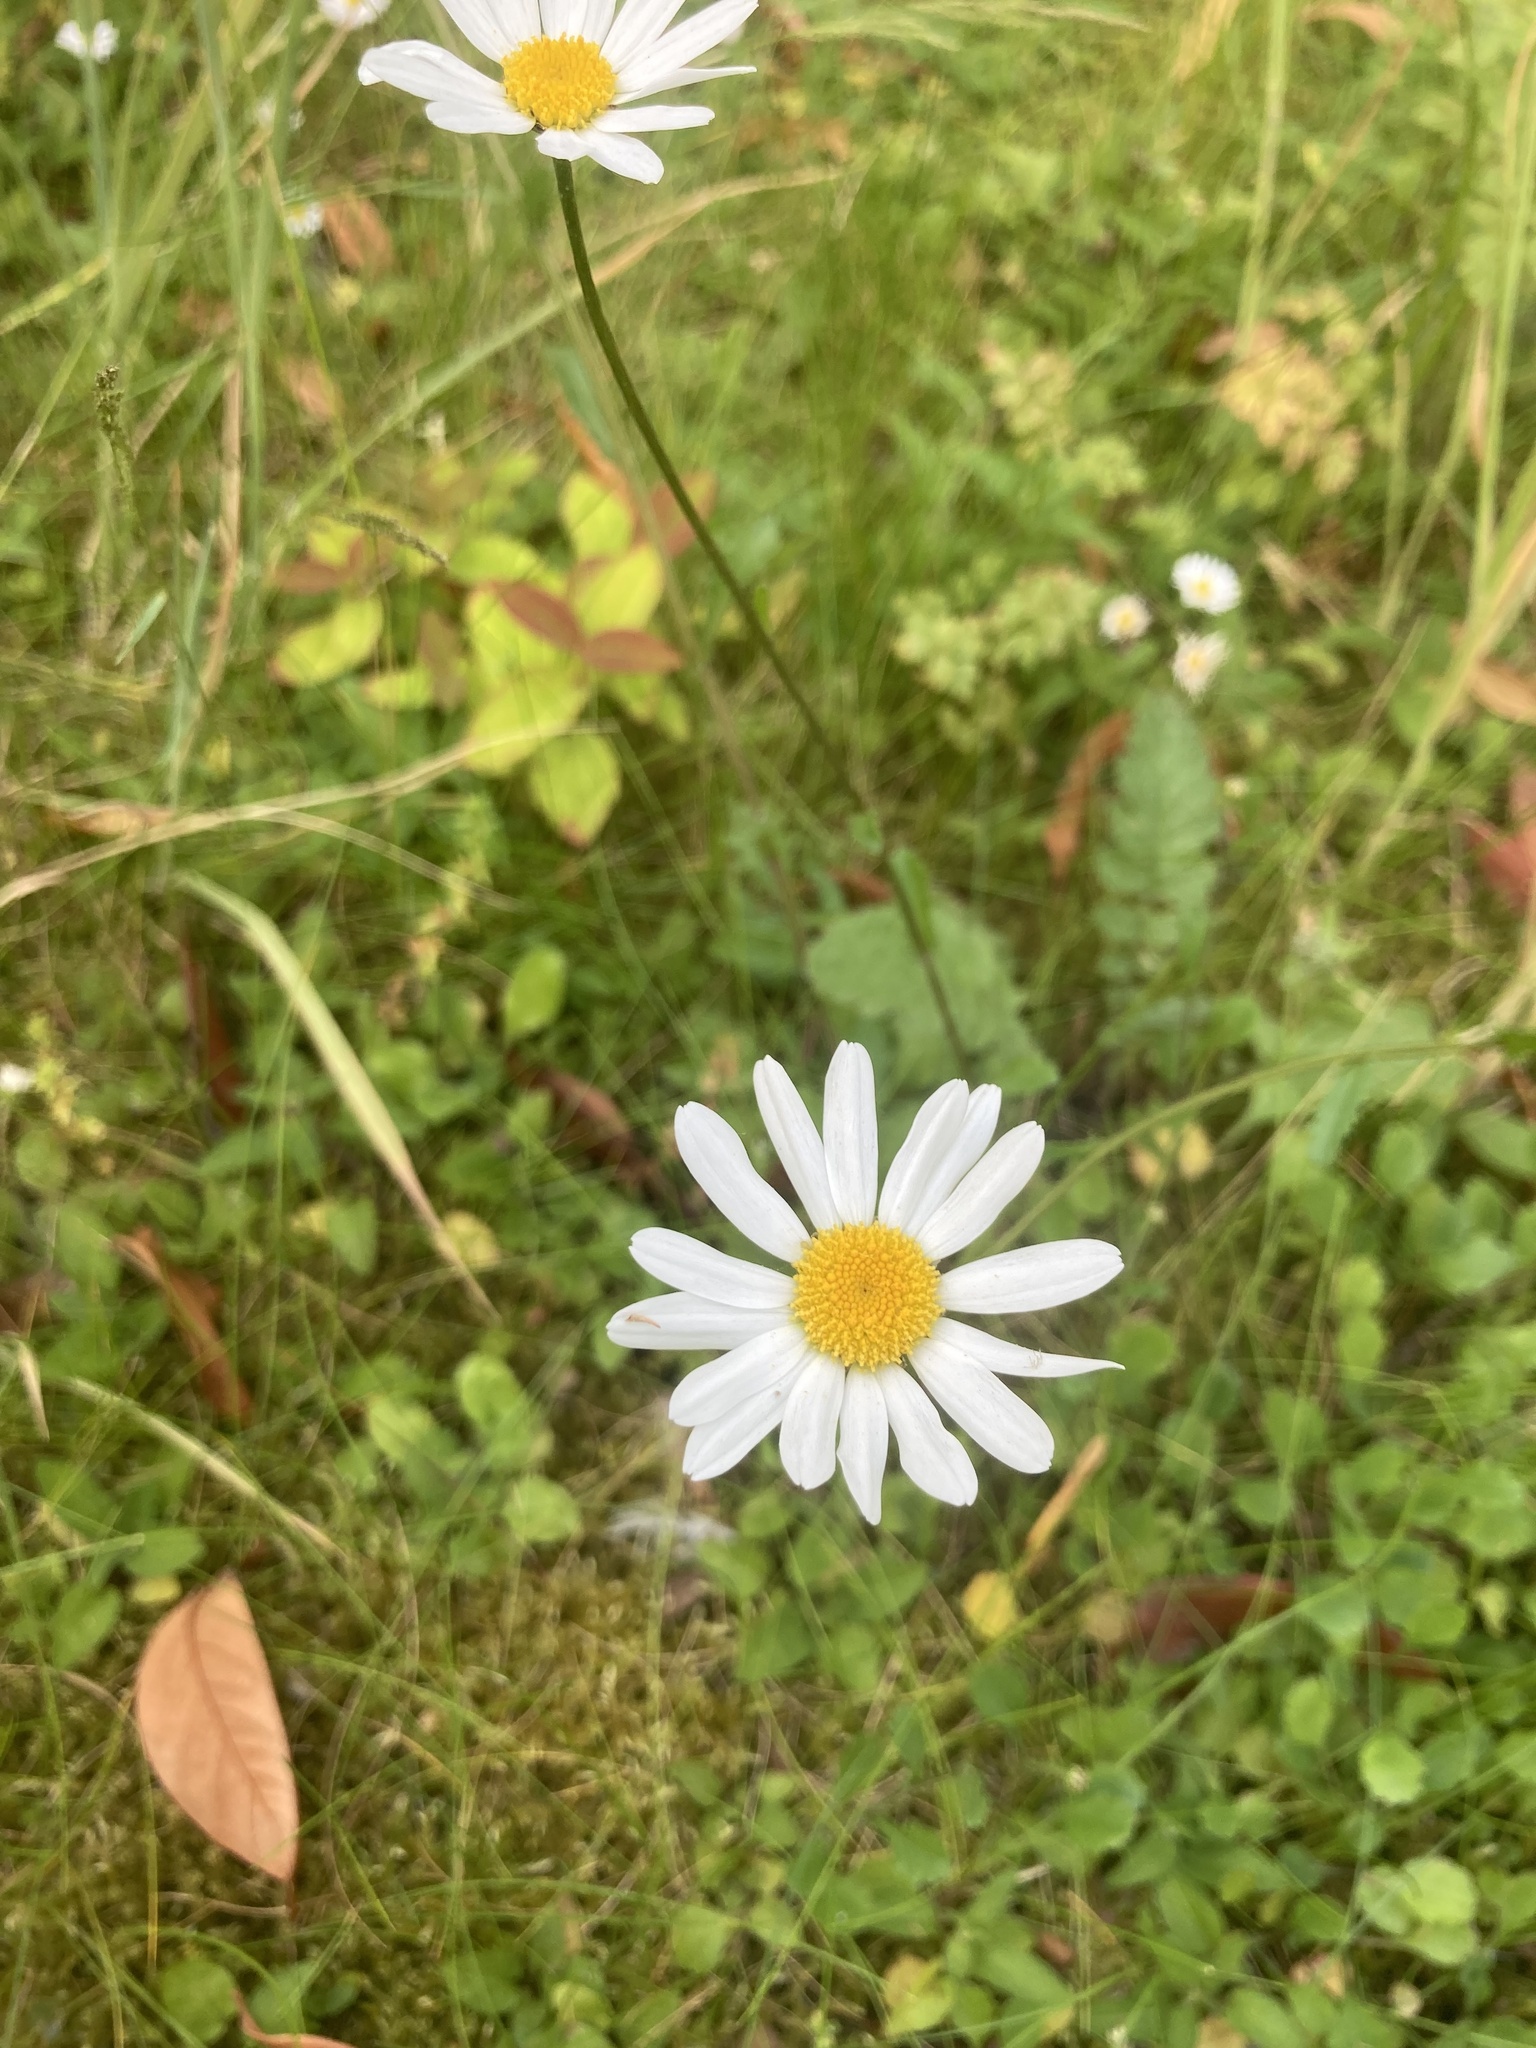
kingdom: Plantae
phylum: Tracheophyta
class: Magnoliopsida
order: Asterales
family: Asteraceae
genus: Leucanthemum
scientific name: Leucanthemum vulgare
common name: Oxeye daisy
